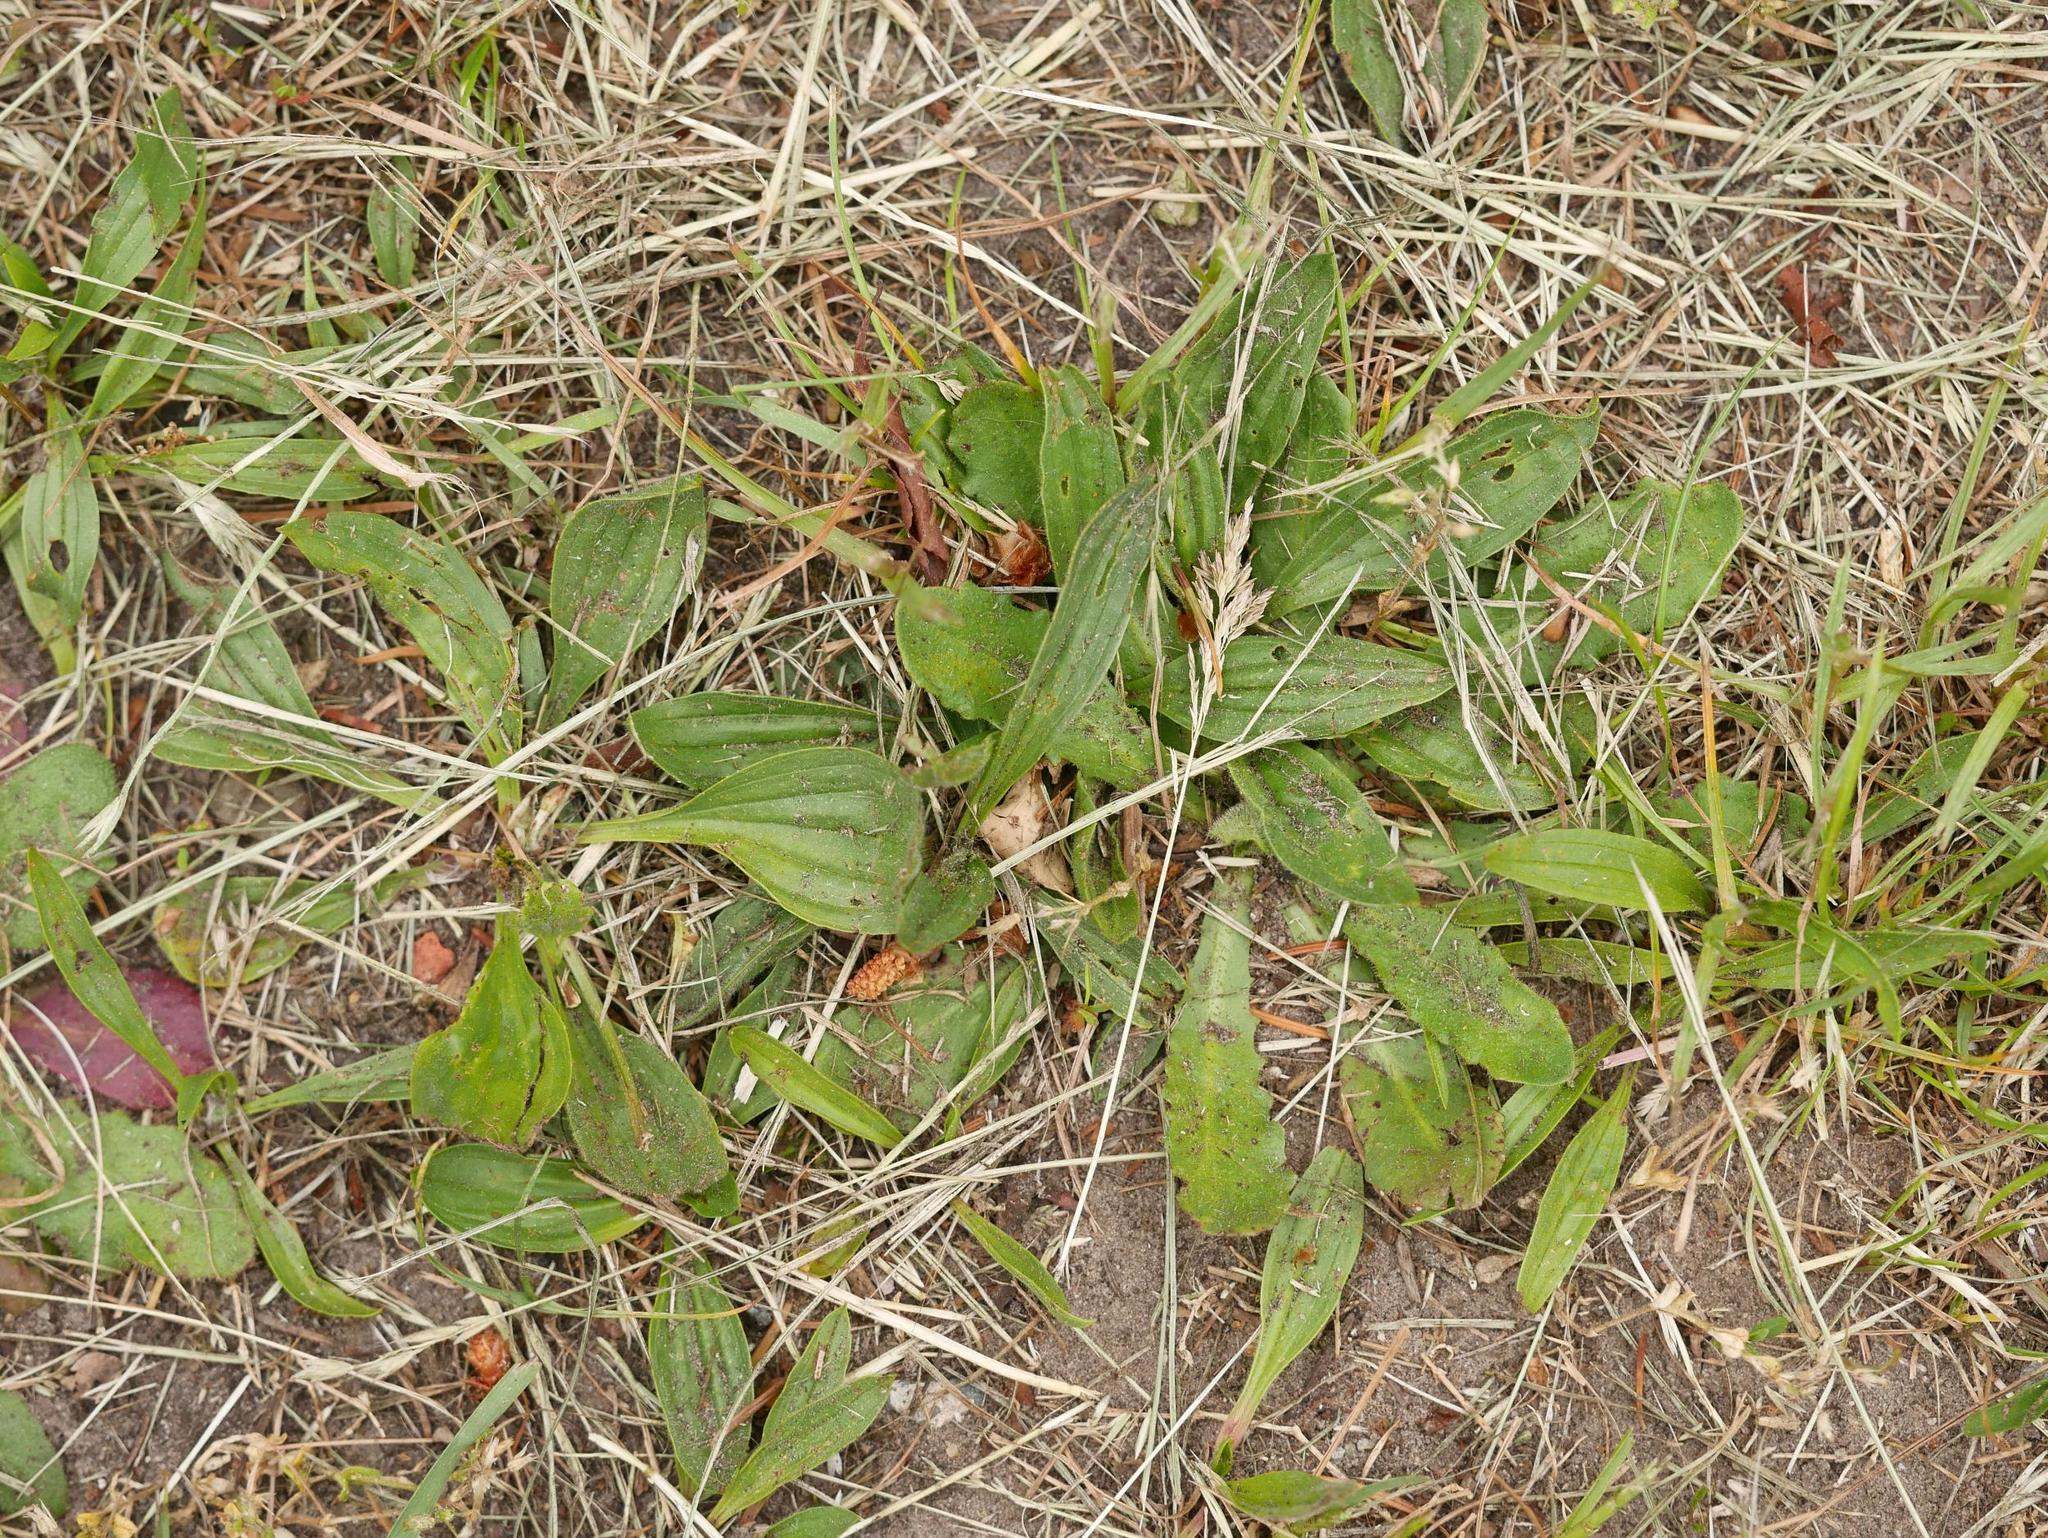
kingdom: Plantae
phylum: Tracheophyta
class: Magnoliopsida
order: Lamiales
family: Plantaginaceae
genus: Plantago
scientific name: Plantago lanceolata
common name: Ribwort plantain
